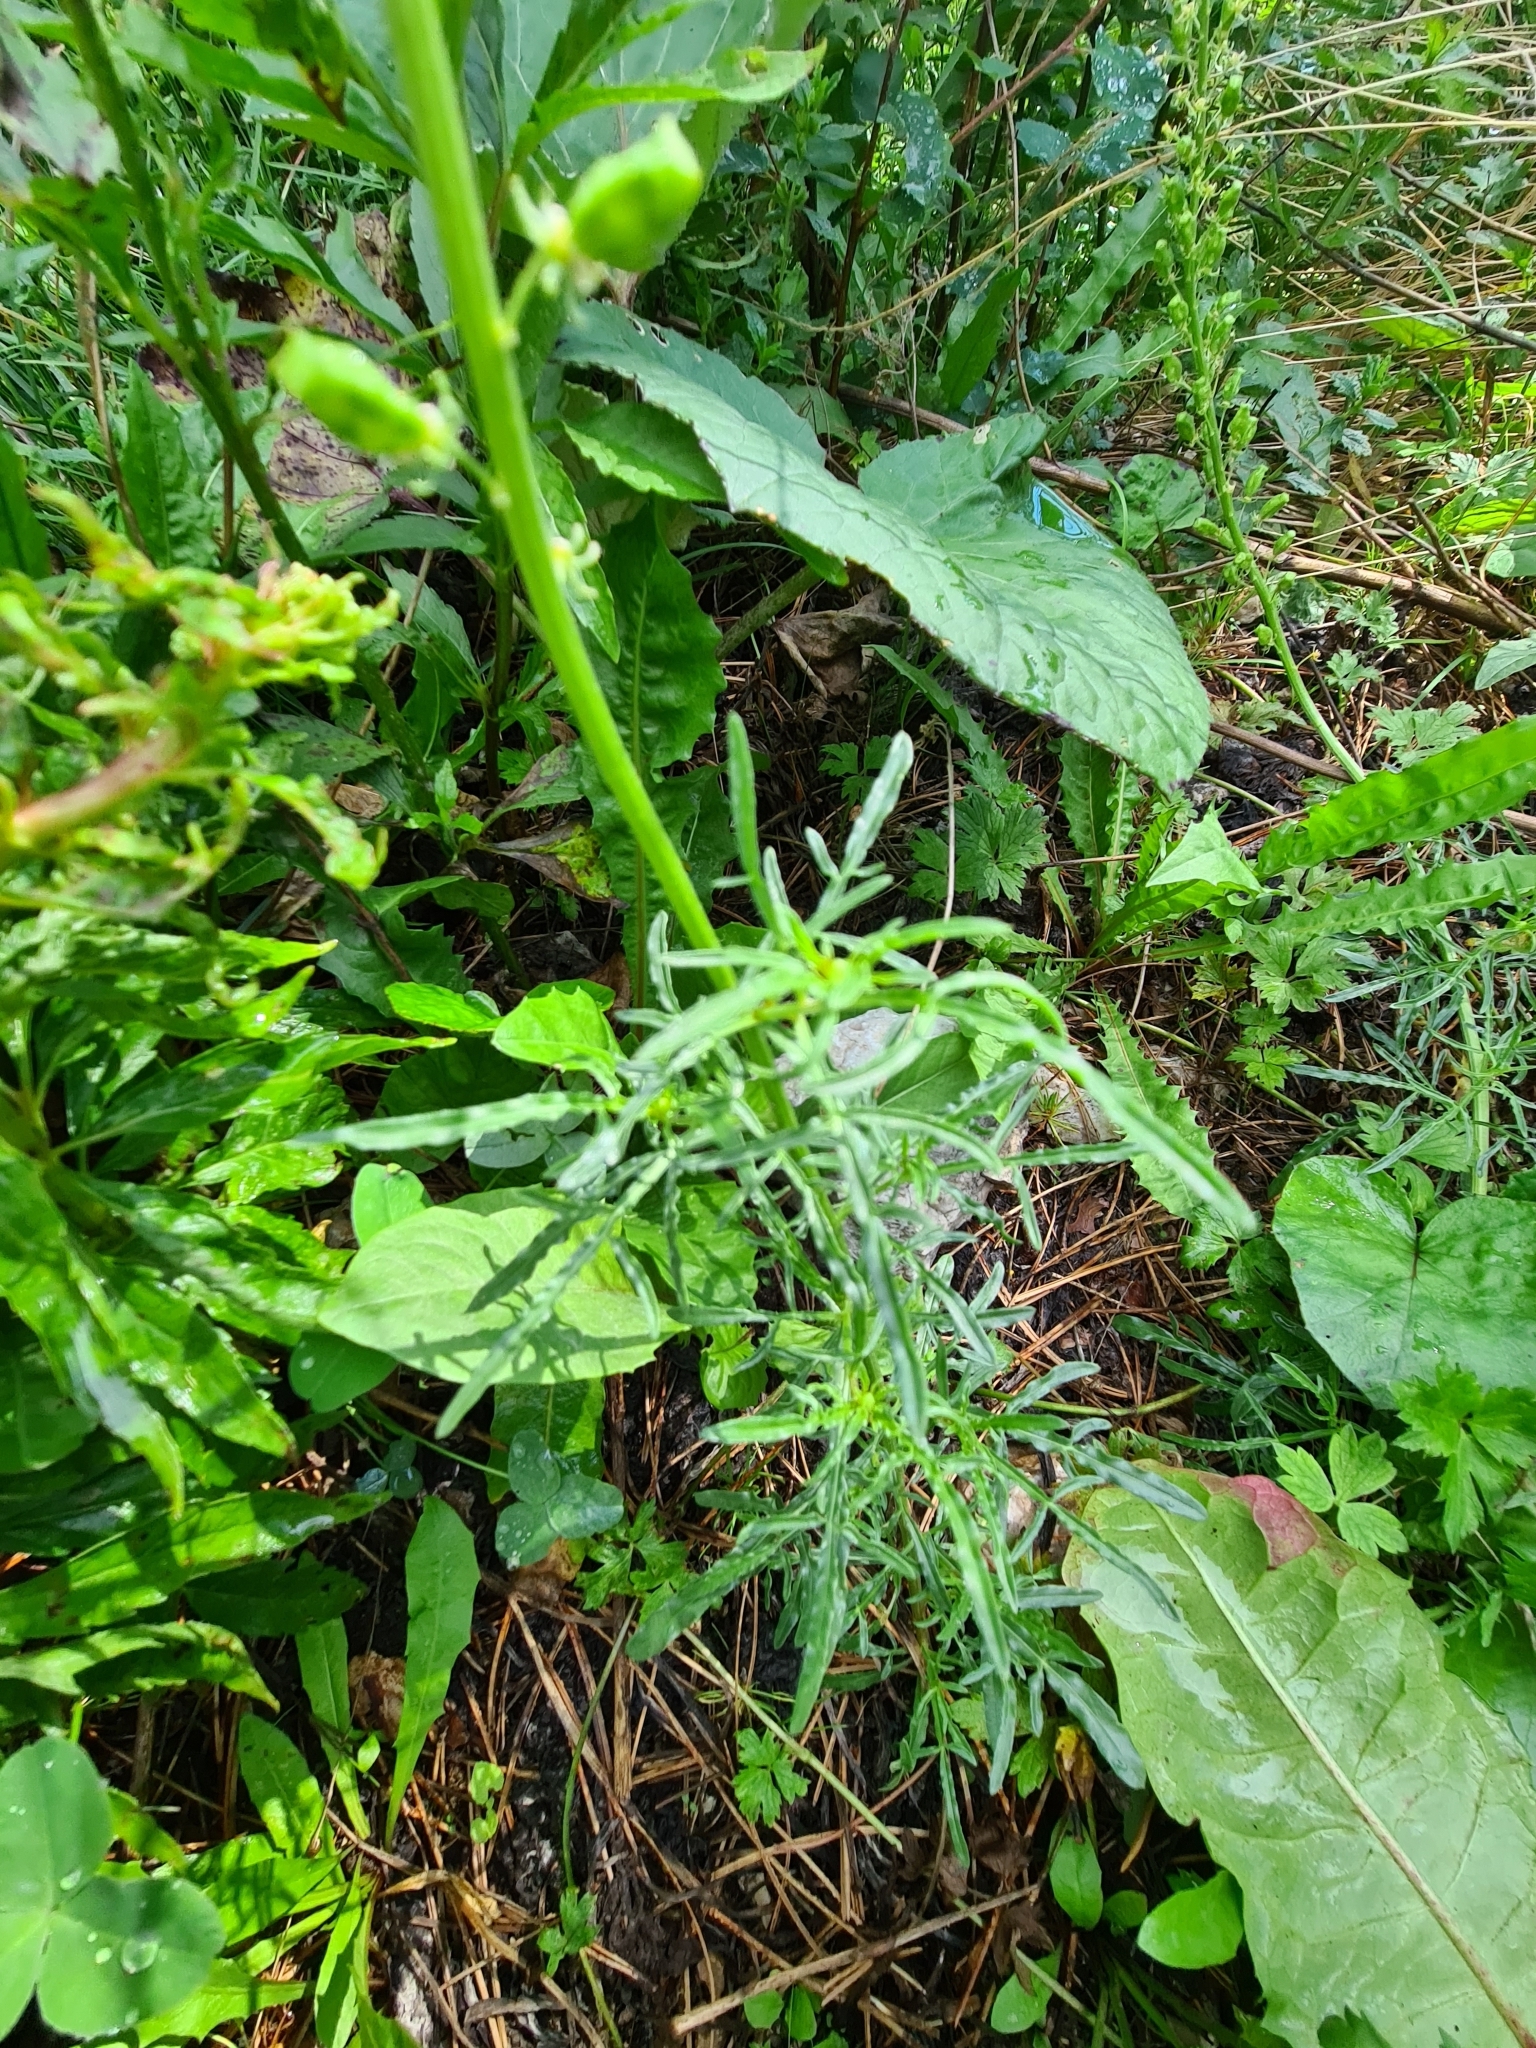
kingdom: Plantae
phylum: Tracheophyta
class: Magnoliopsida
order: Brassicales
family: Resedaceae
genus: Reseda
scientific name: Reseda lutea
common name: Wild mignonette
